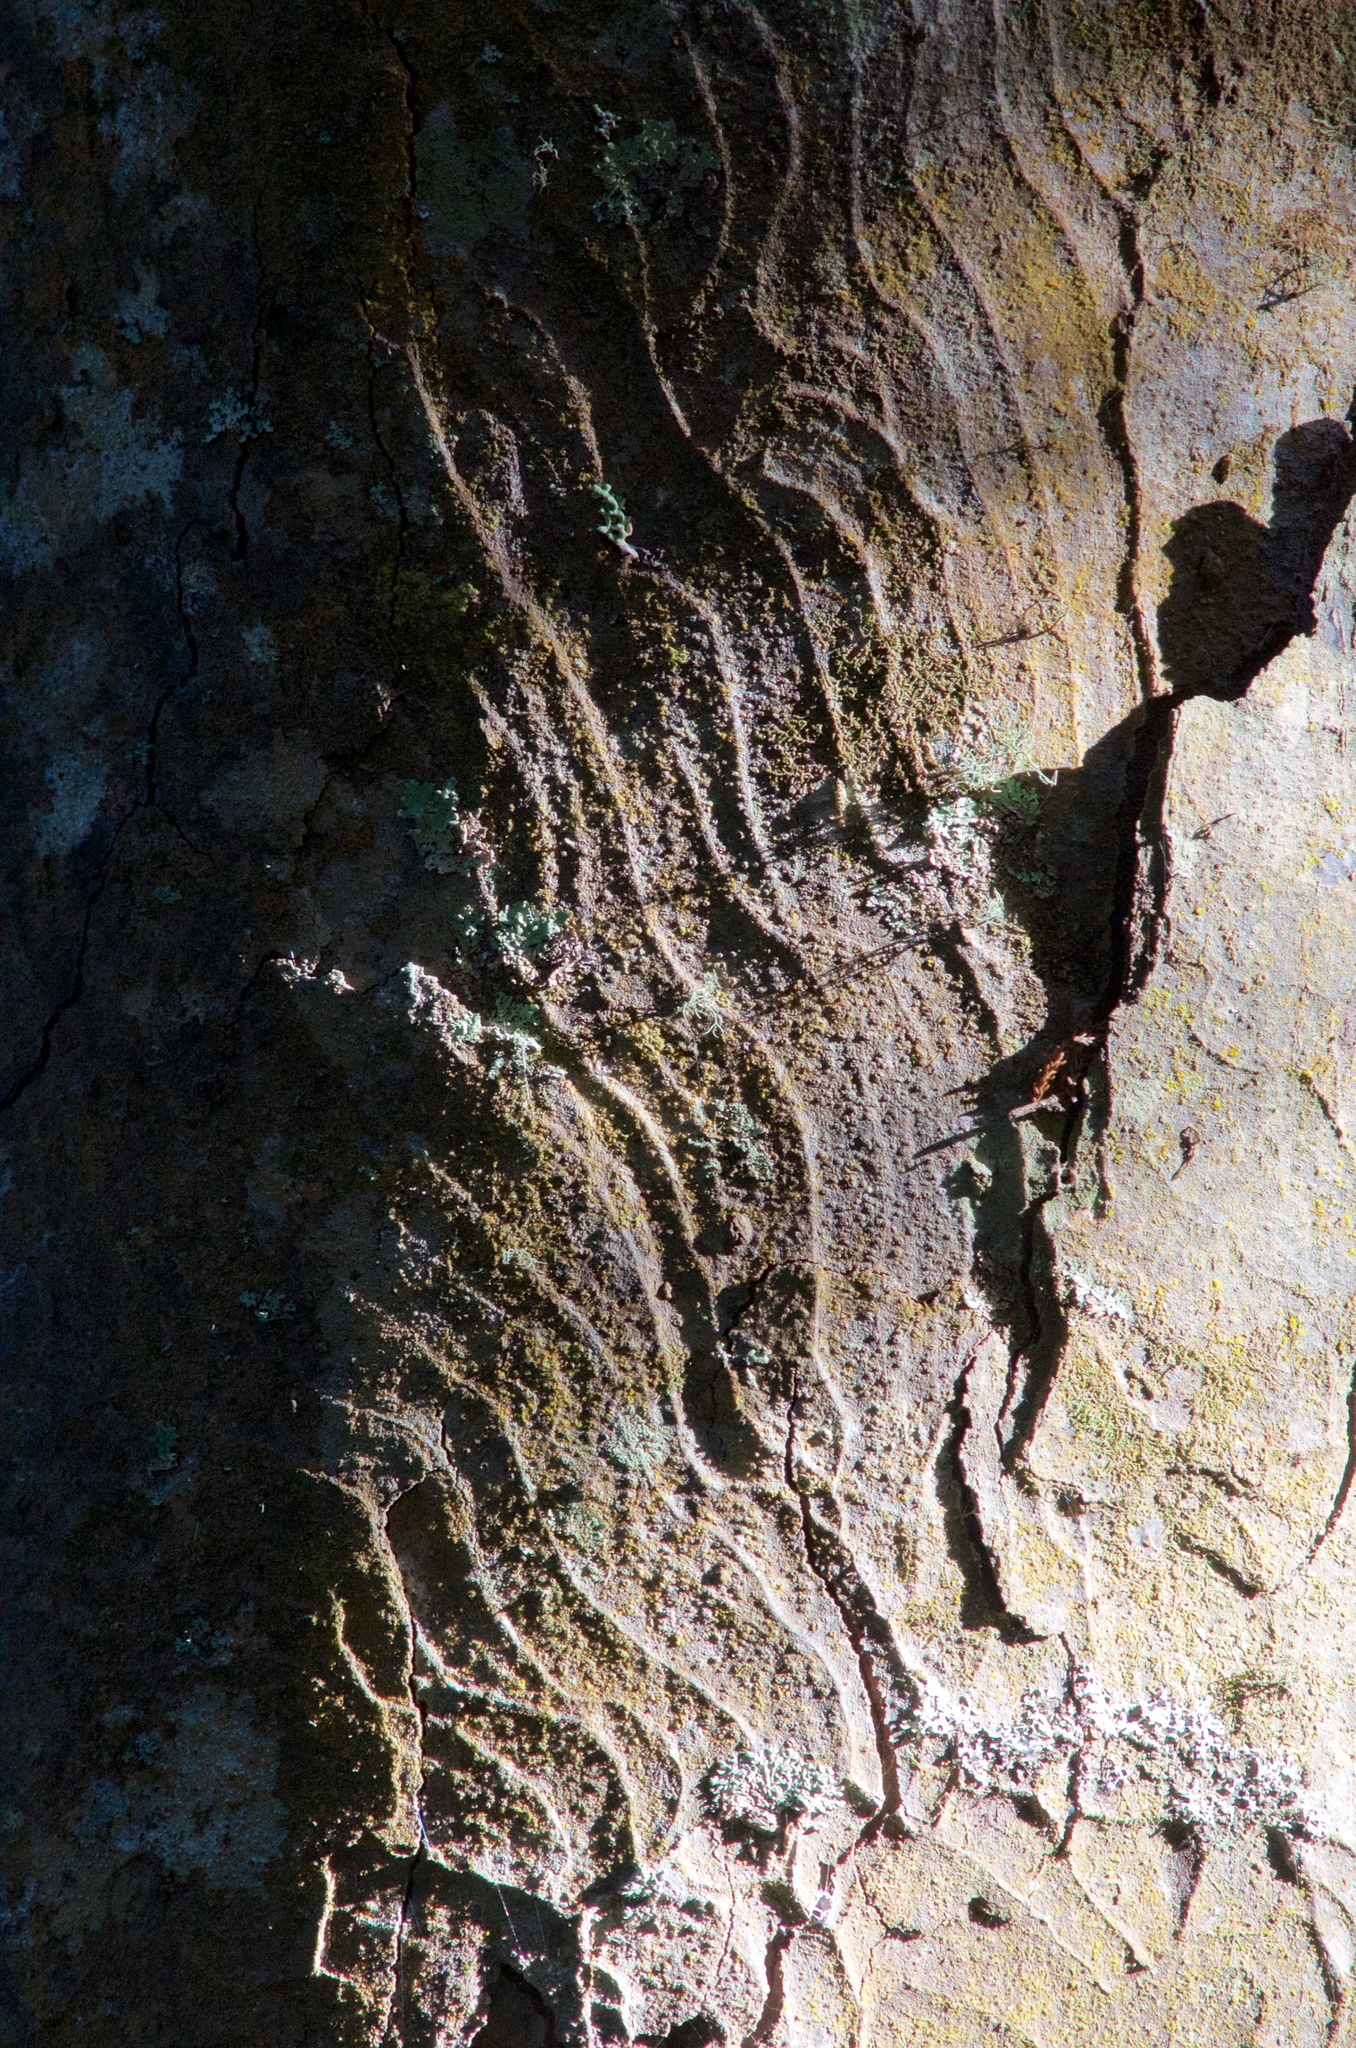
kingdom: Plantae
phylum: Tracheophyta
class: Pinopsida
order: Pinales
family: Podocarpaceae
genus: Dacrydium
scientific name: Dacrydium cupressinum
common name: Red pine
